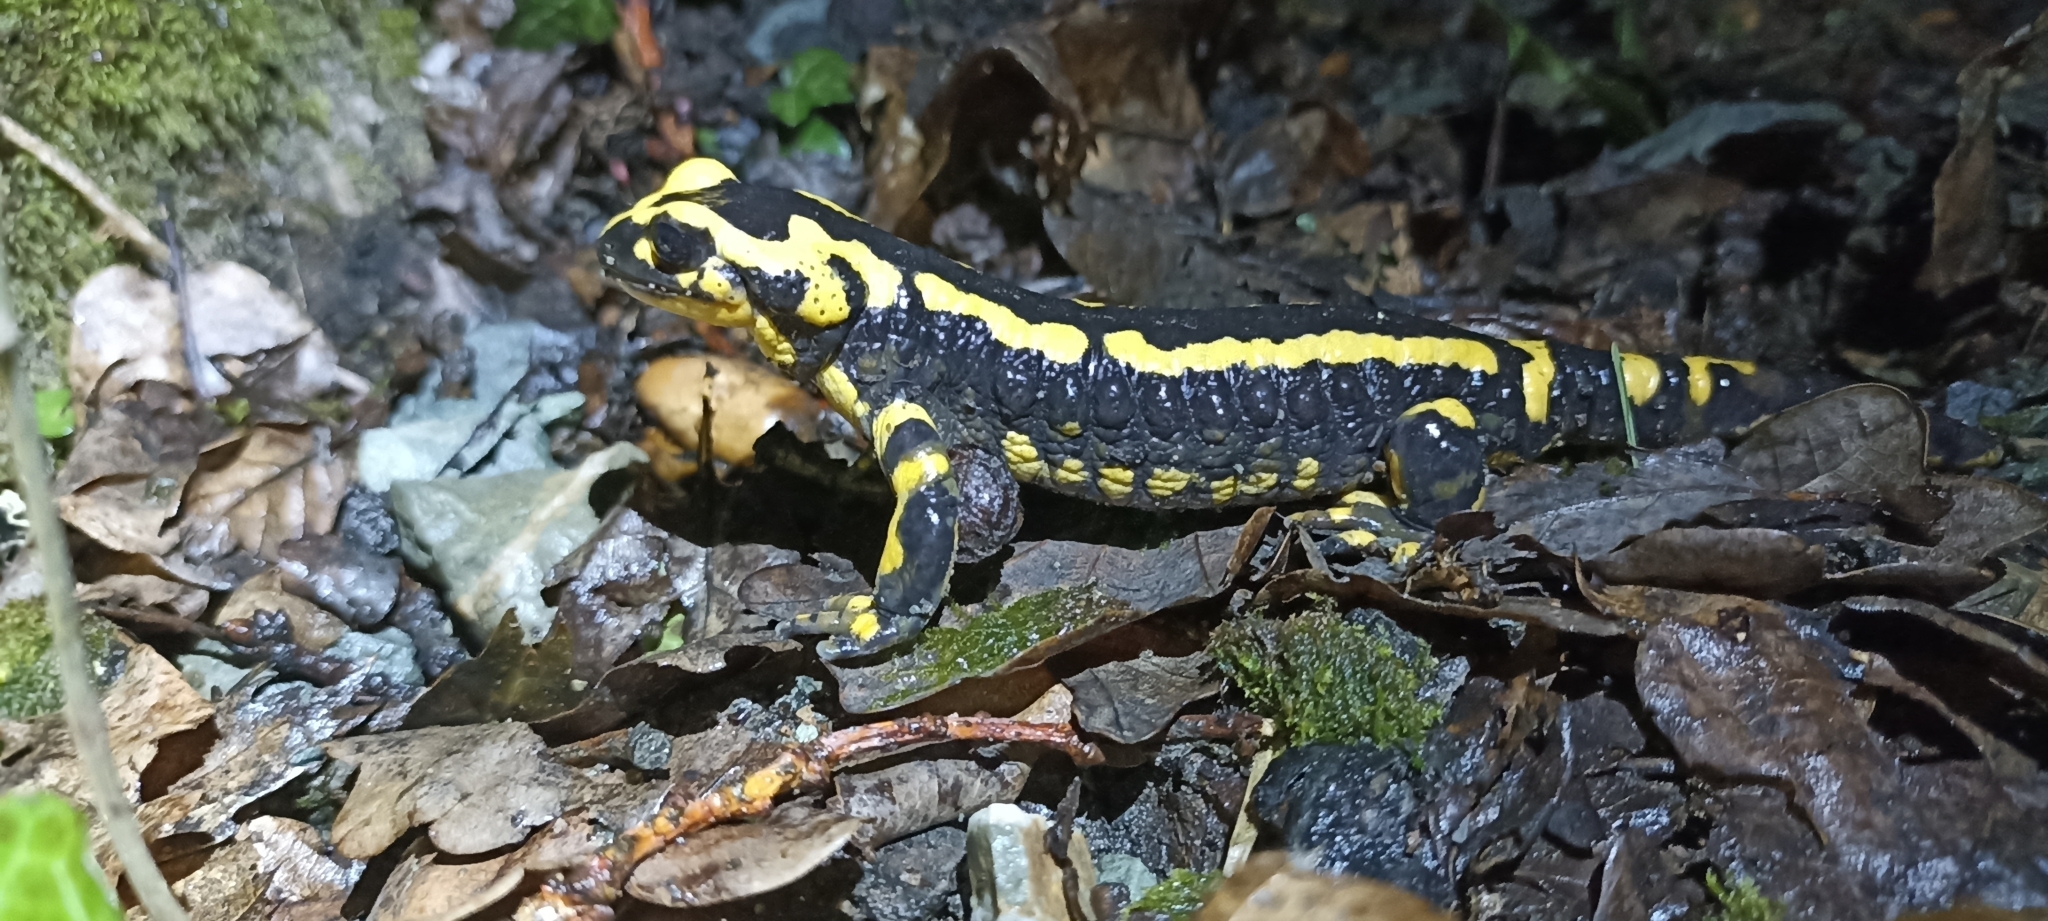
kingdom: Animalia
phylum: Chordata
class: Amphibia
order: Caudata
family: Salamandridae
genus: Salamandra
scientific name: Salamandra salamandra
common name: Fire salamander
